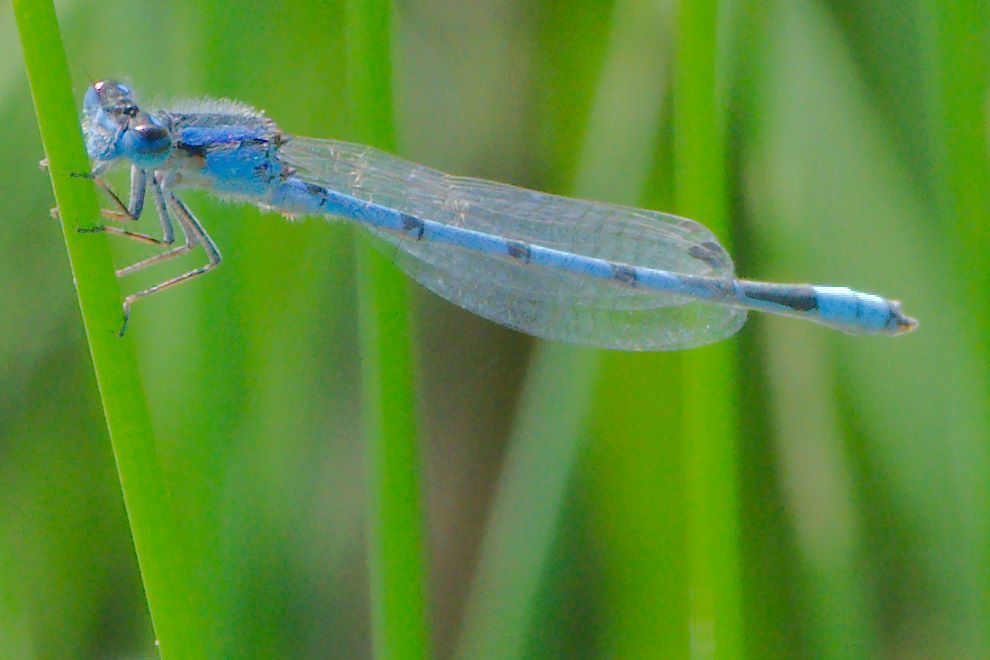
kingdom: Animalia
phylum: Arthropoda
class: Insecta
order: Odonata
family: Coenagrionidae
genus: Enallagma
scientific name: Enallagma civile
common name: Damselfly
